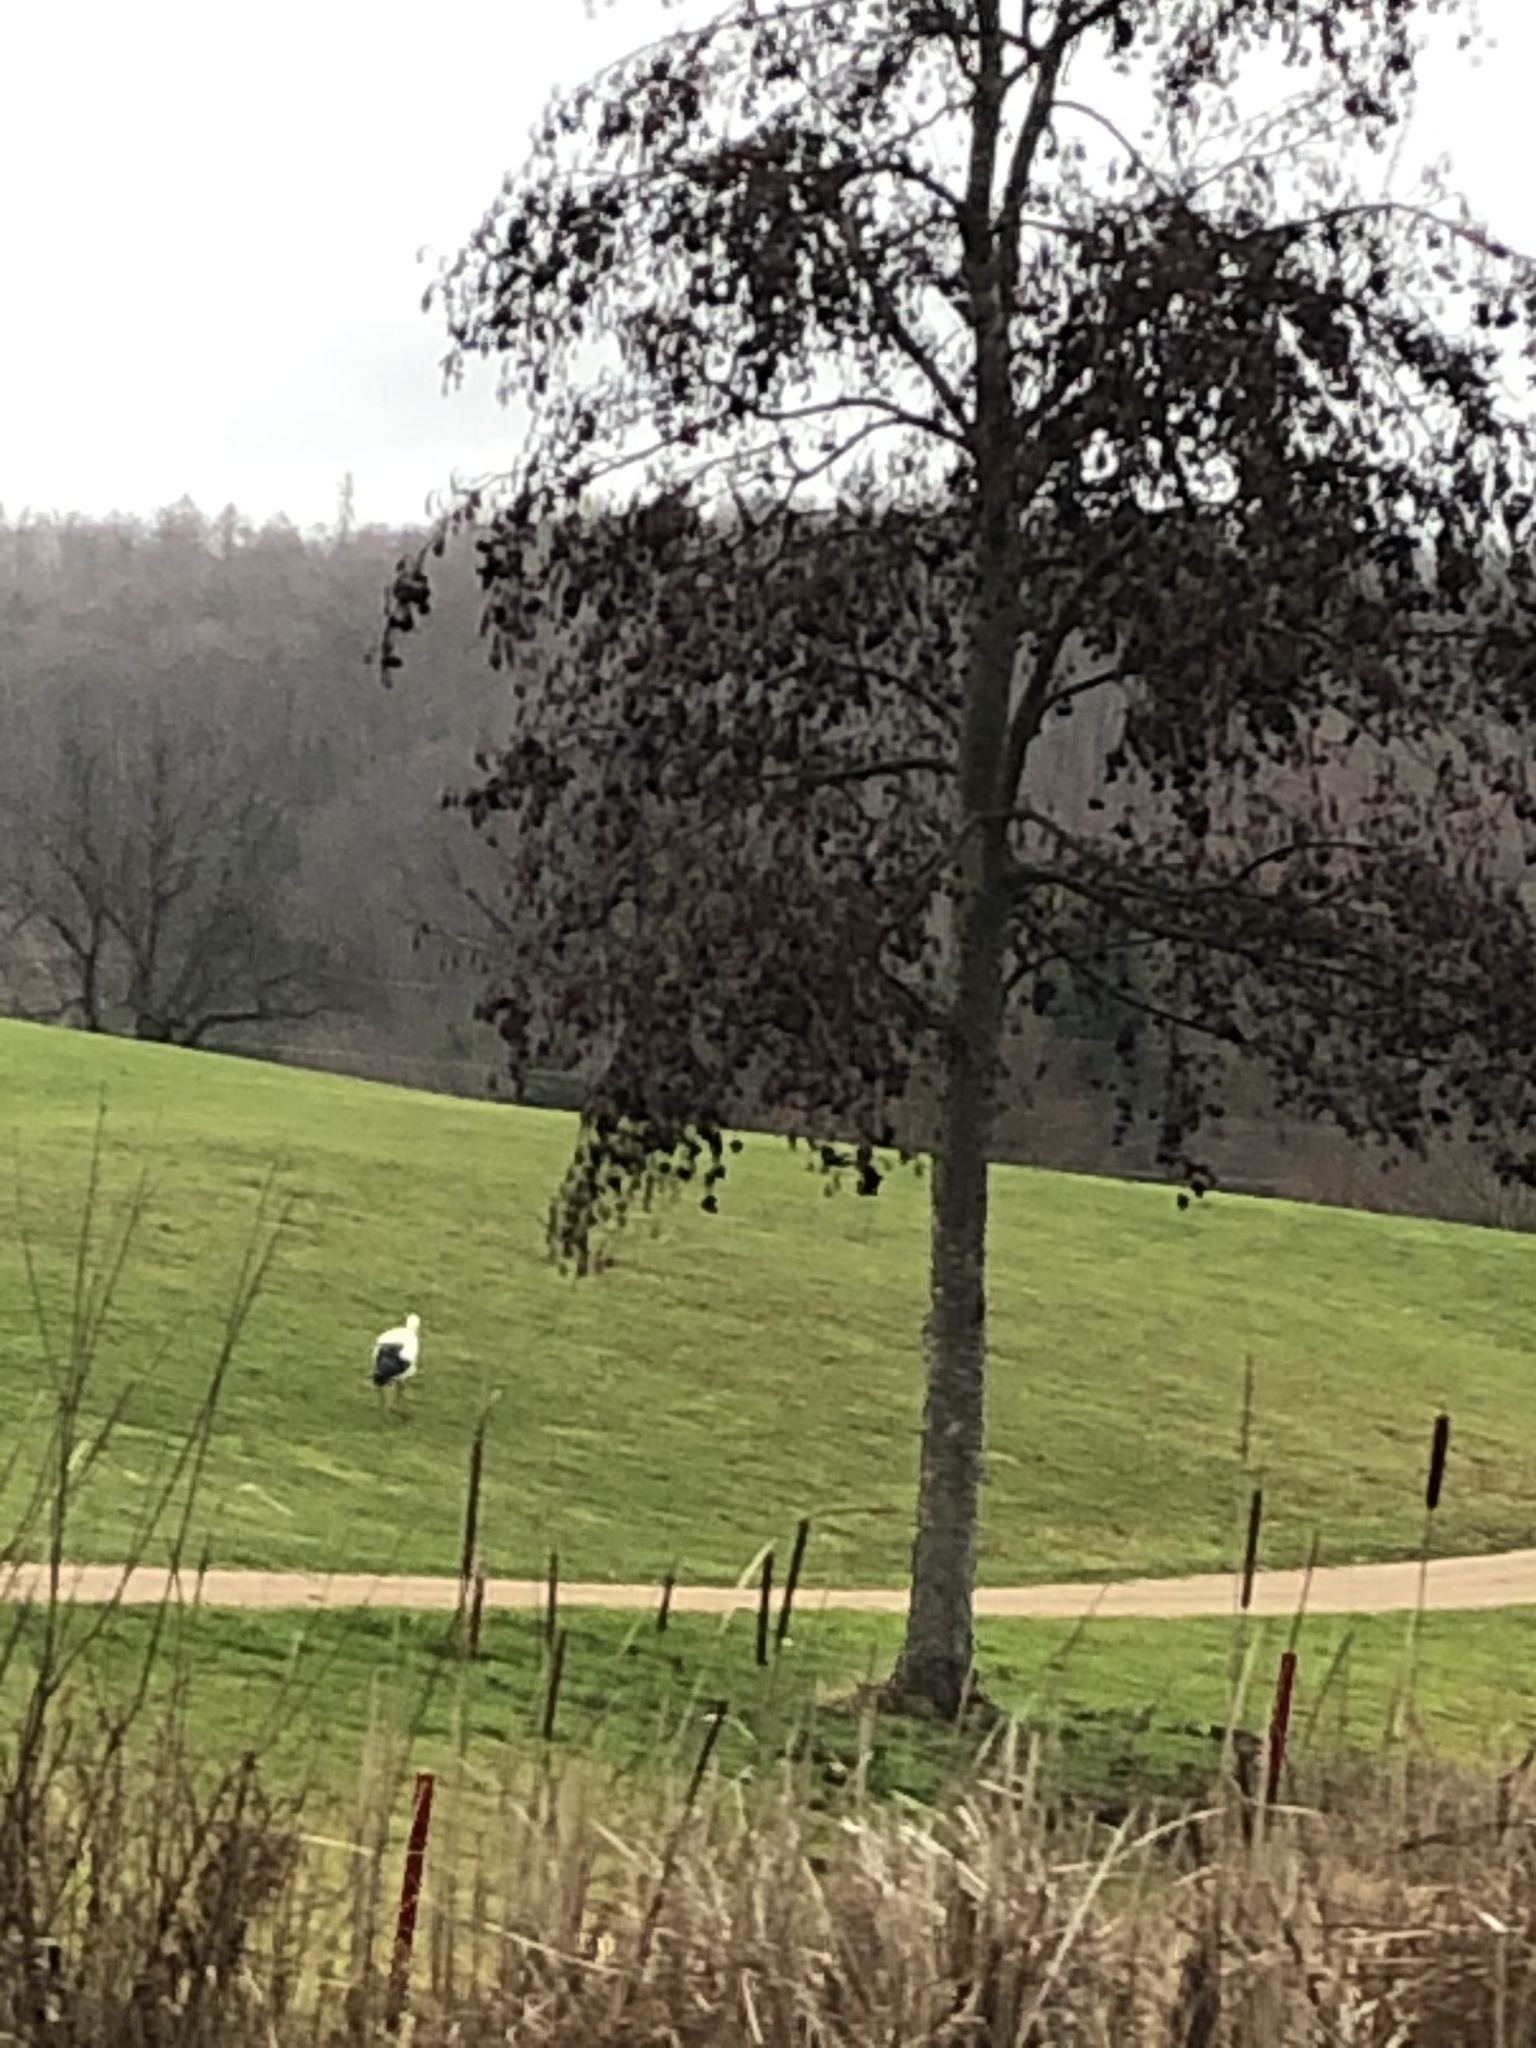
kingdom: Animalia
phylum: Chordata
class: Aves
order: Ciconiiformes
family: Ciconiidae
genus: Ciconia
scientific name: Ciconia ciconia
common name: White stork
